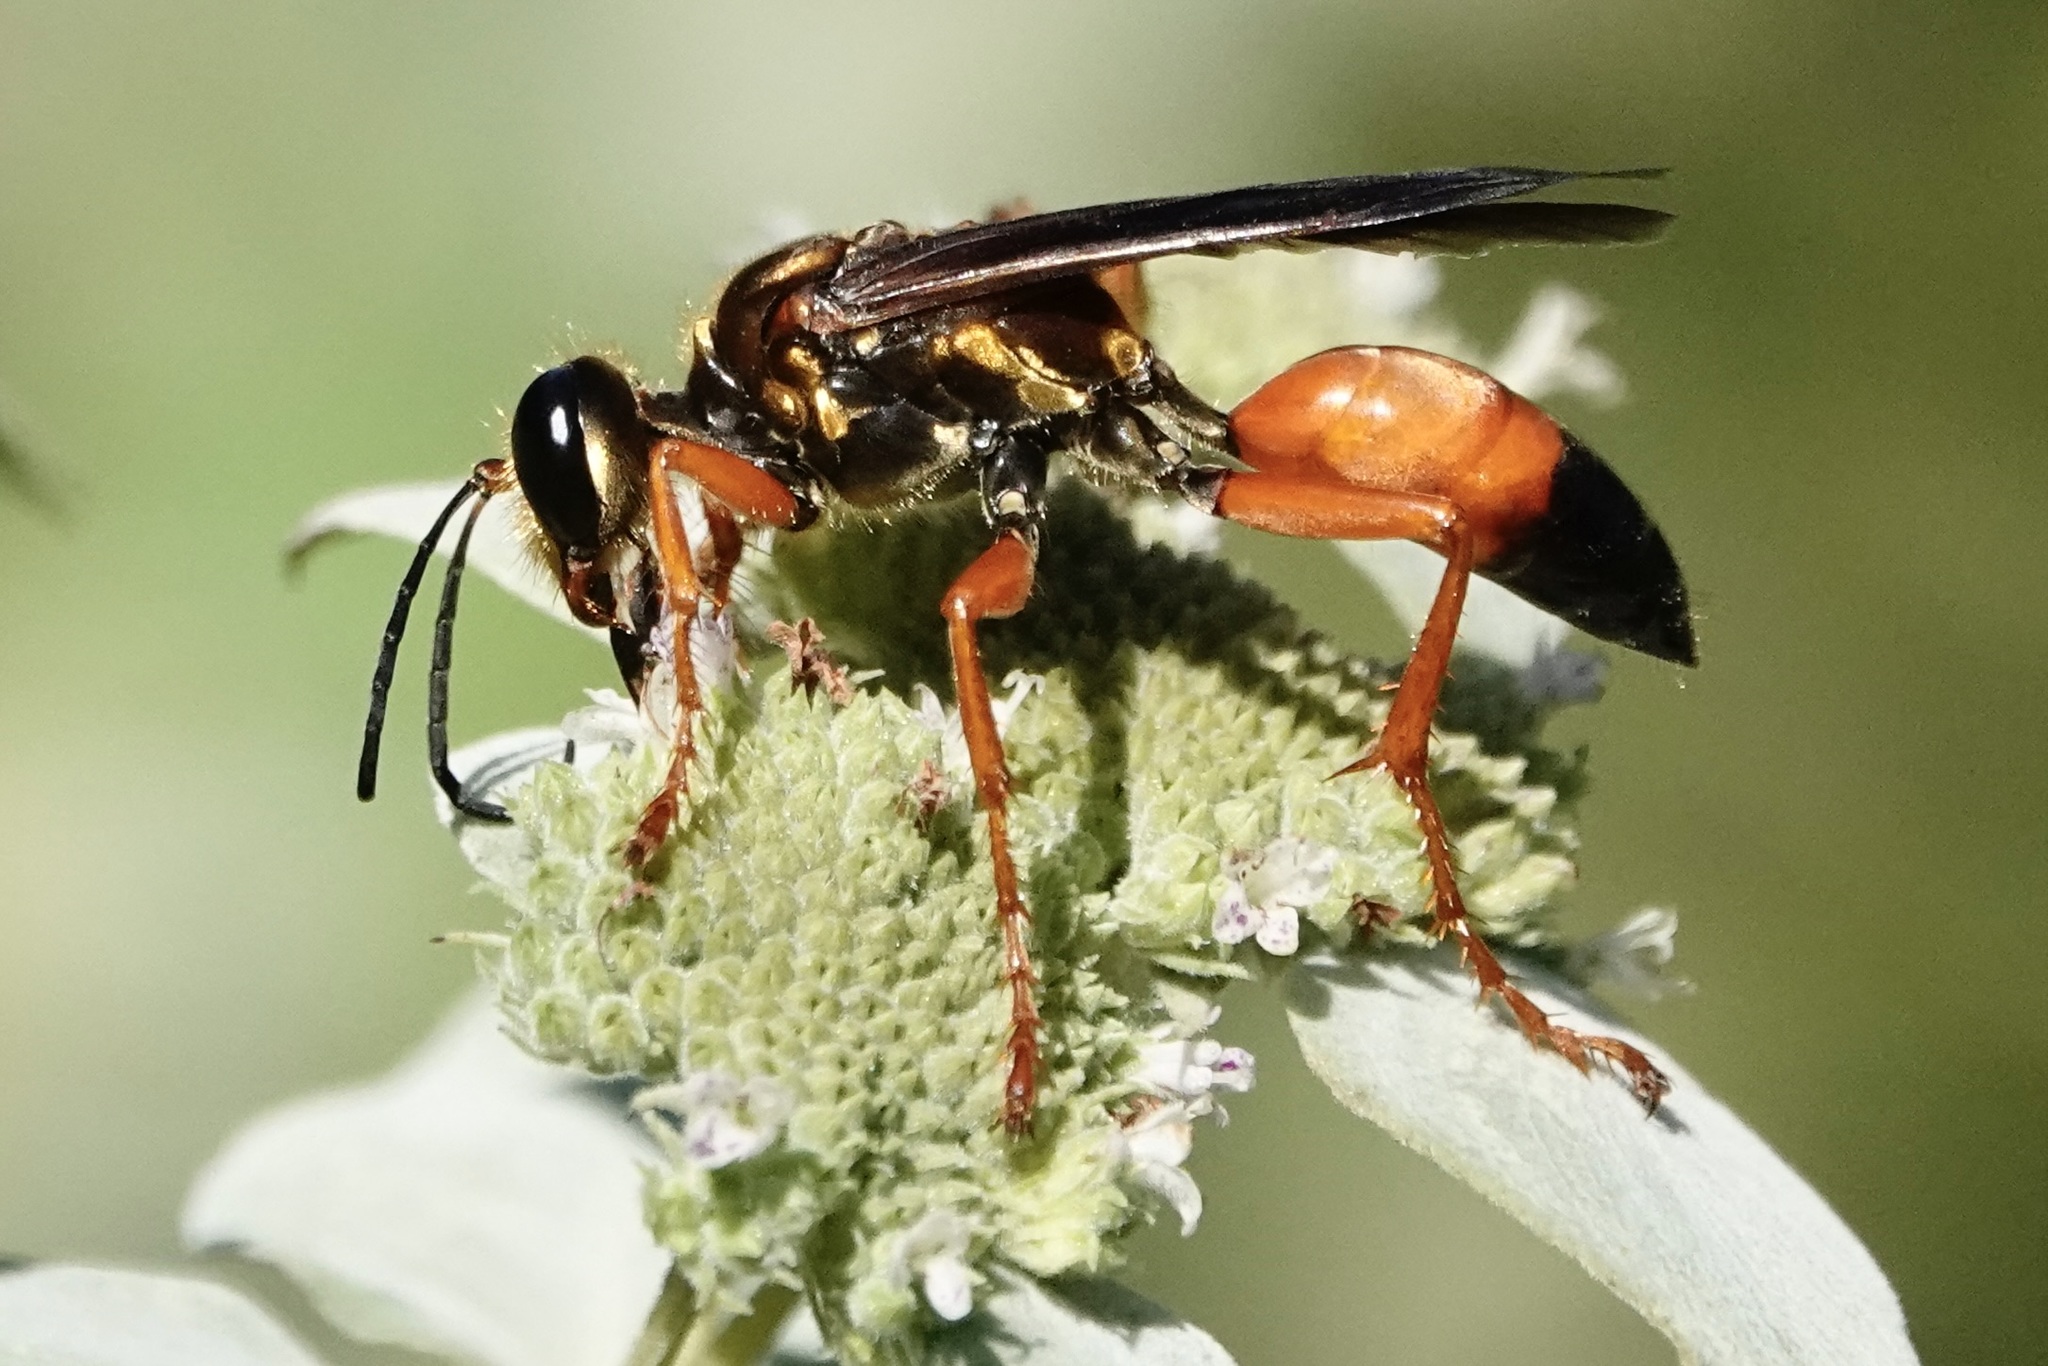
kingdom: Animalia
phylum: Arthropoda
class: Insecta
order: Hymenoptera
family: Sphecidae
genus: Sphex
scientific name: Sphex ichneumoneus
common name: Great golden digger wasp
